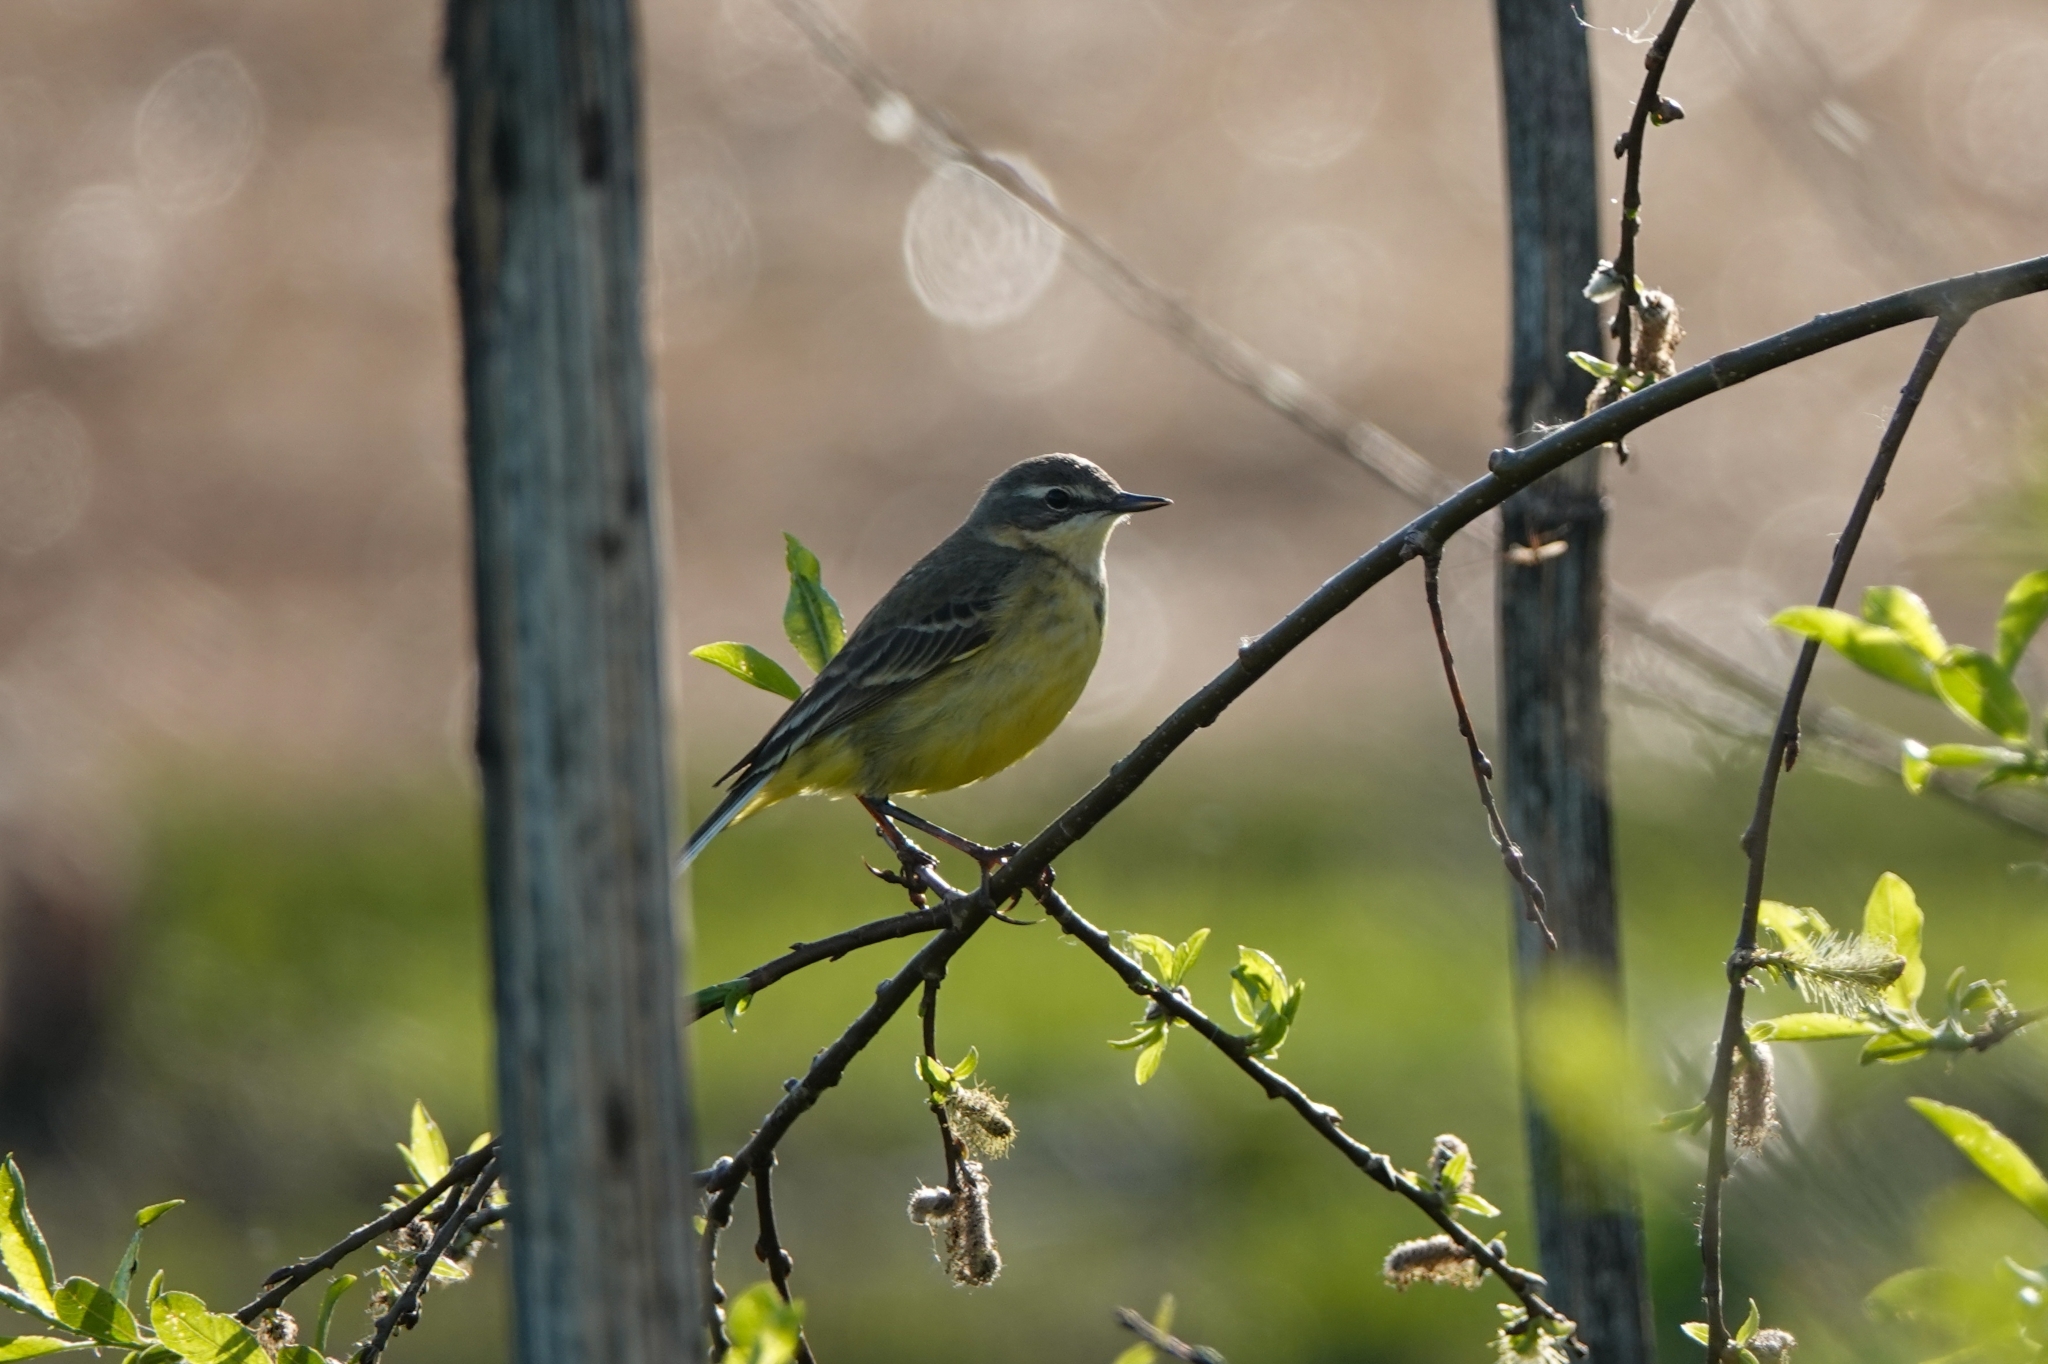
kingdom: Animalia
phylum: Chordata
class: Aves
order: Passeriformes
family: Motacillidae
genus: Motacilla
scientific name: Motacilla flava
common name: Western yellow wagtail
